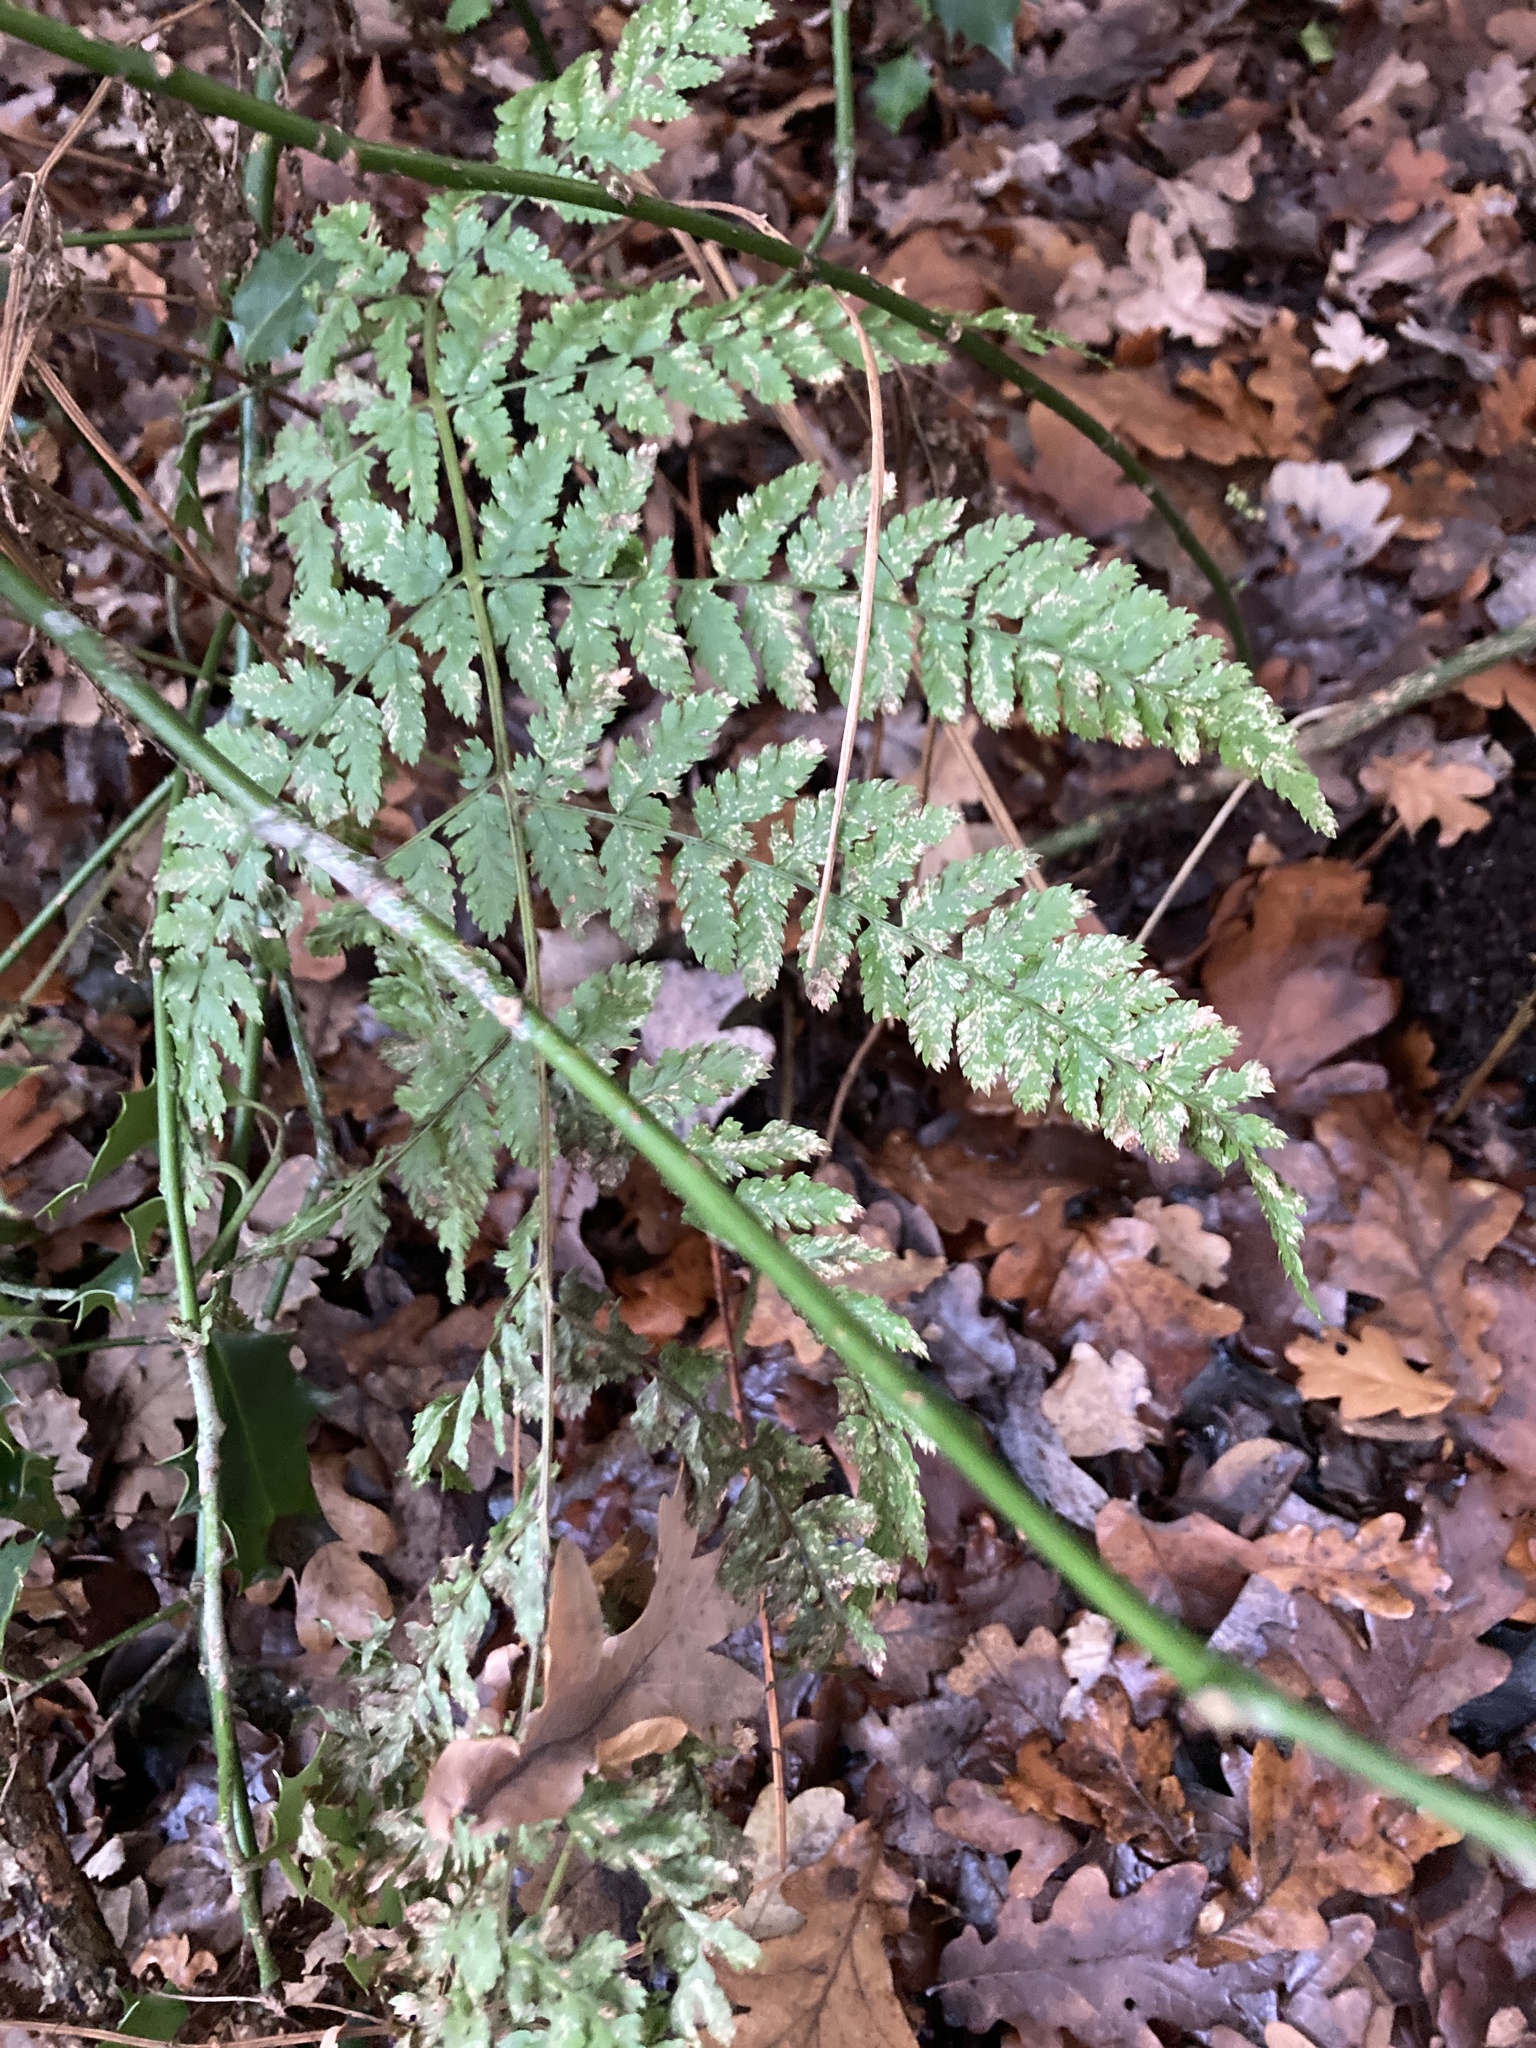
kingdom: Plantae
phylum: Tracheophyta
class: Polypodiopsida
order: Polypodiales
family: Dryopteridaceae
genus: Dryopteris
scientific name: Dryopteris dilatata
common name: Broad buckler-fern
